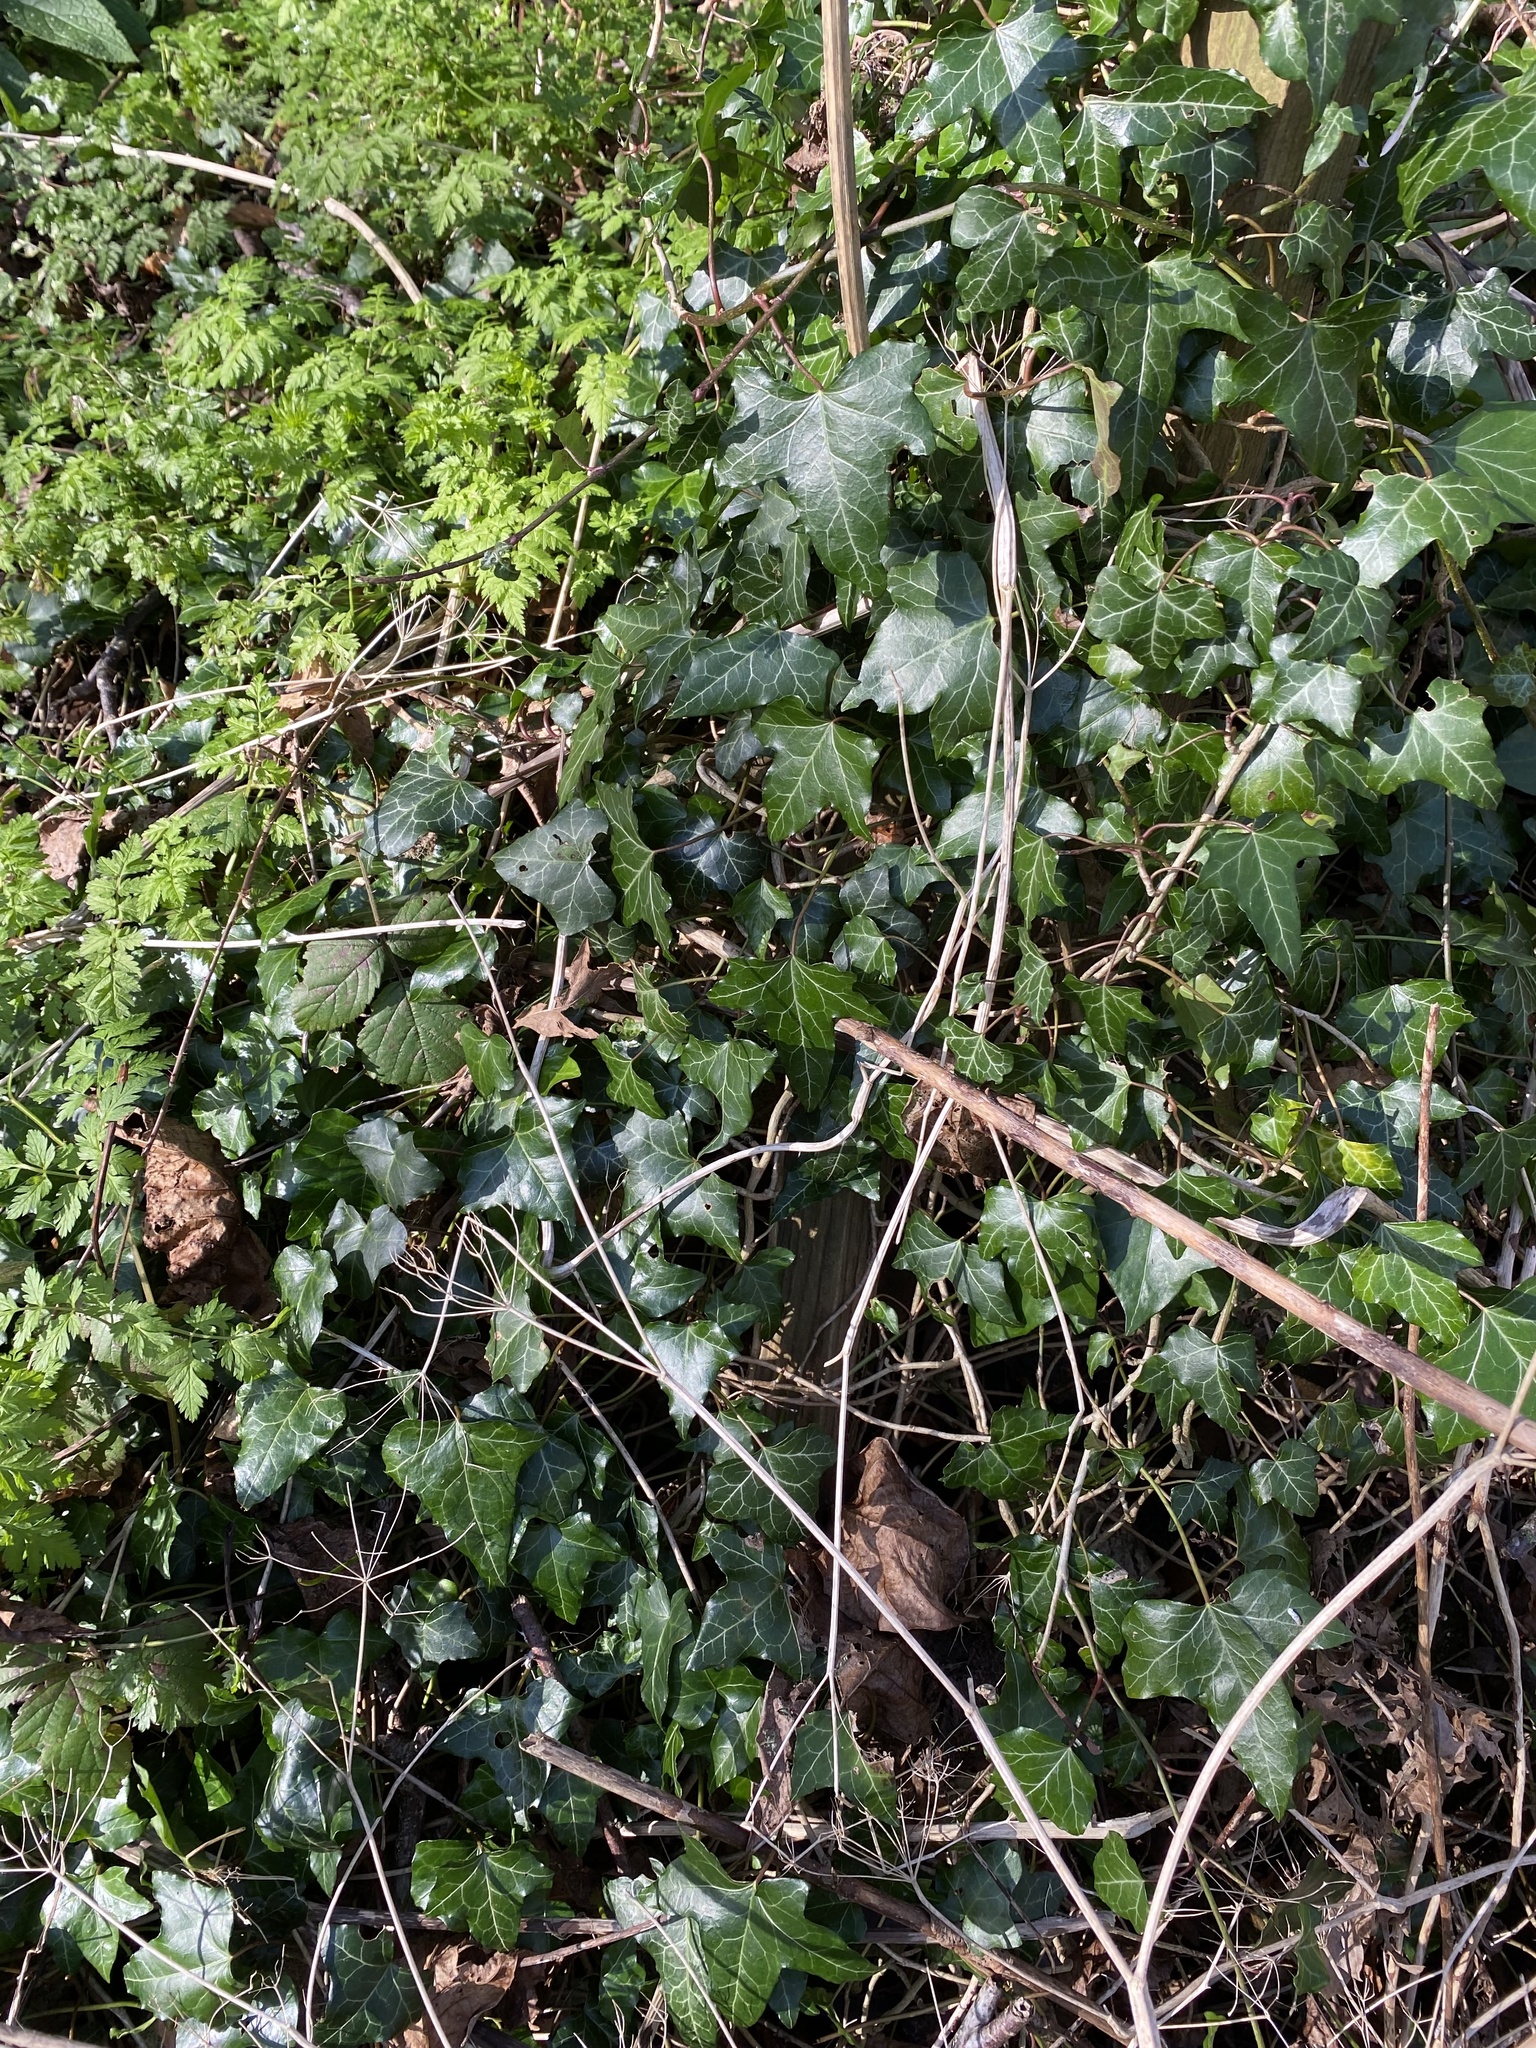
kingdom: Plantae
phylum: Tracheophyta
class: Magnoliopsida
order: Apiales
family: Araliaceae
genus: Hedera
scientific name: Hedera helix
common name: Ivy
